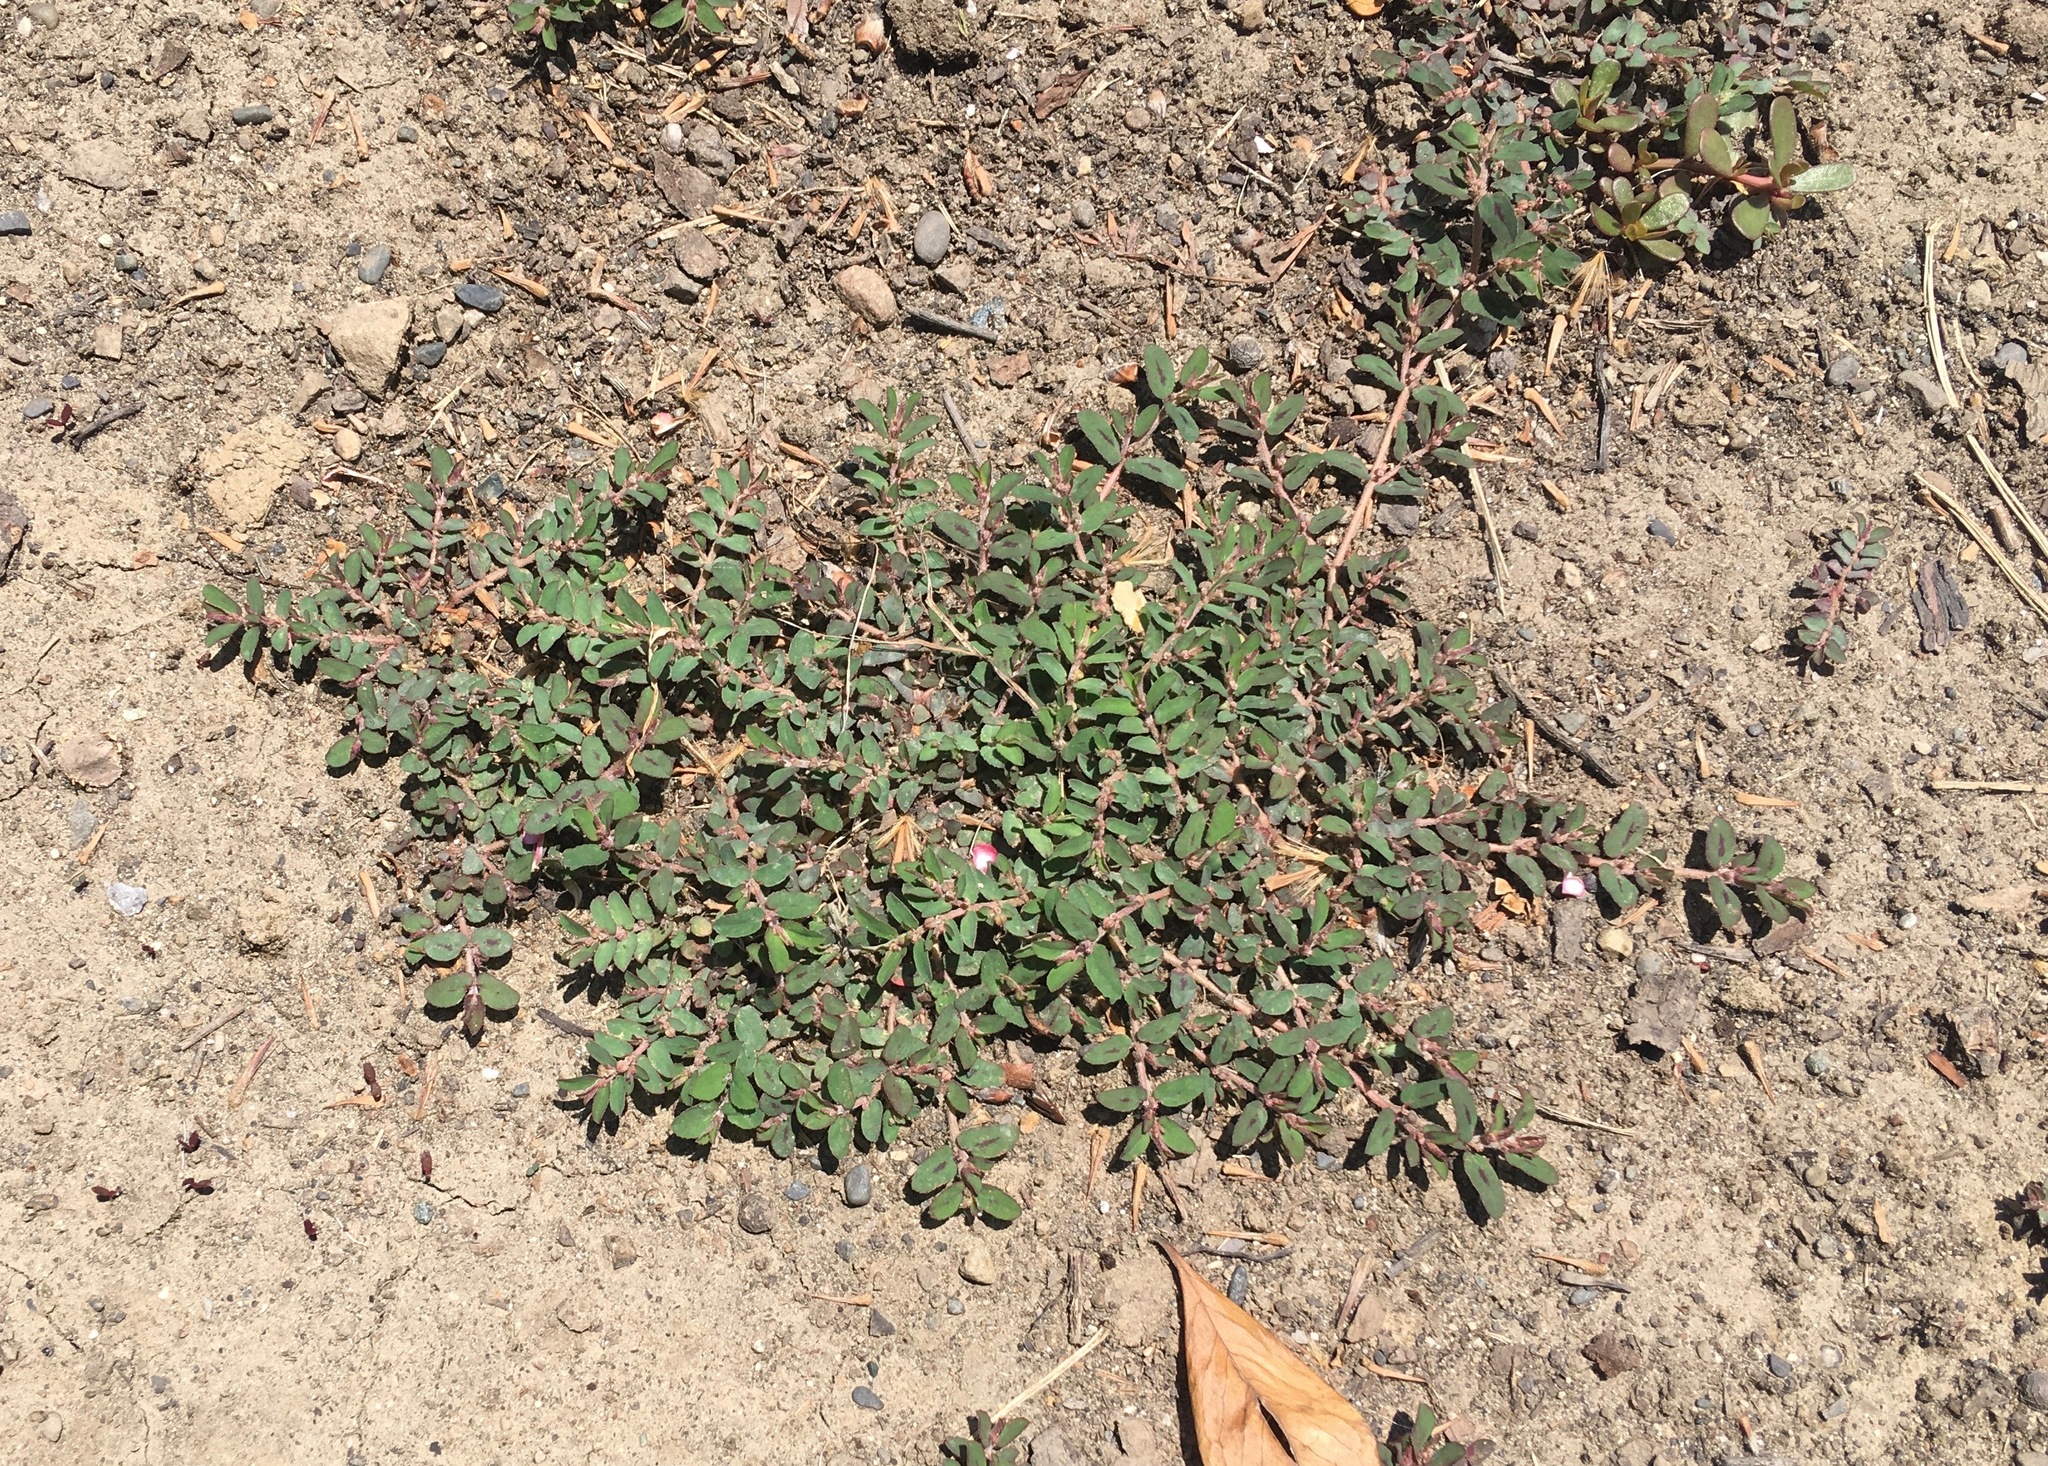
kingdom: Plantae
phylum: Tracheophyta
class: Magnoliopsida
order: Malpighiales
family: Euphorbiaceae
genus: Euphorbia
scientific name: Euphorbia maculata
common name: Spotted spurge
